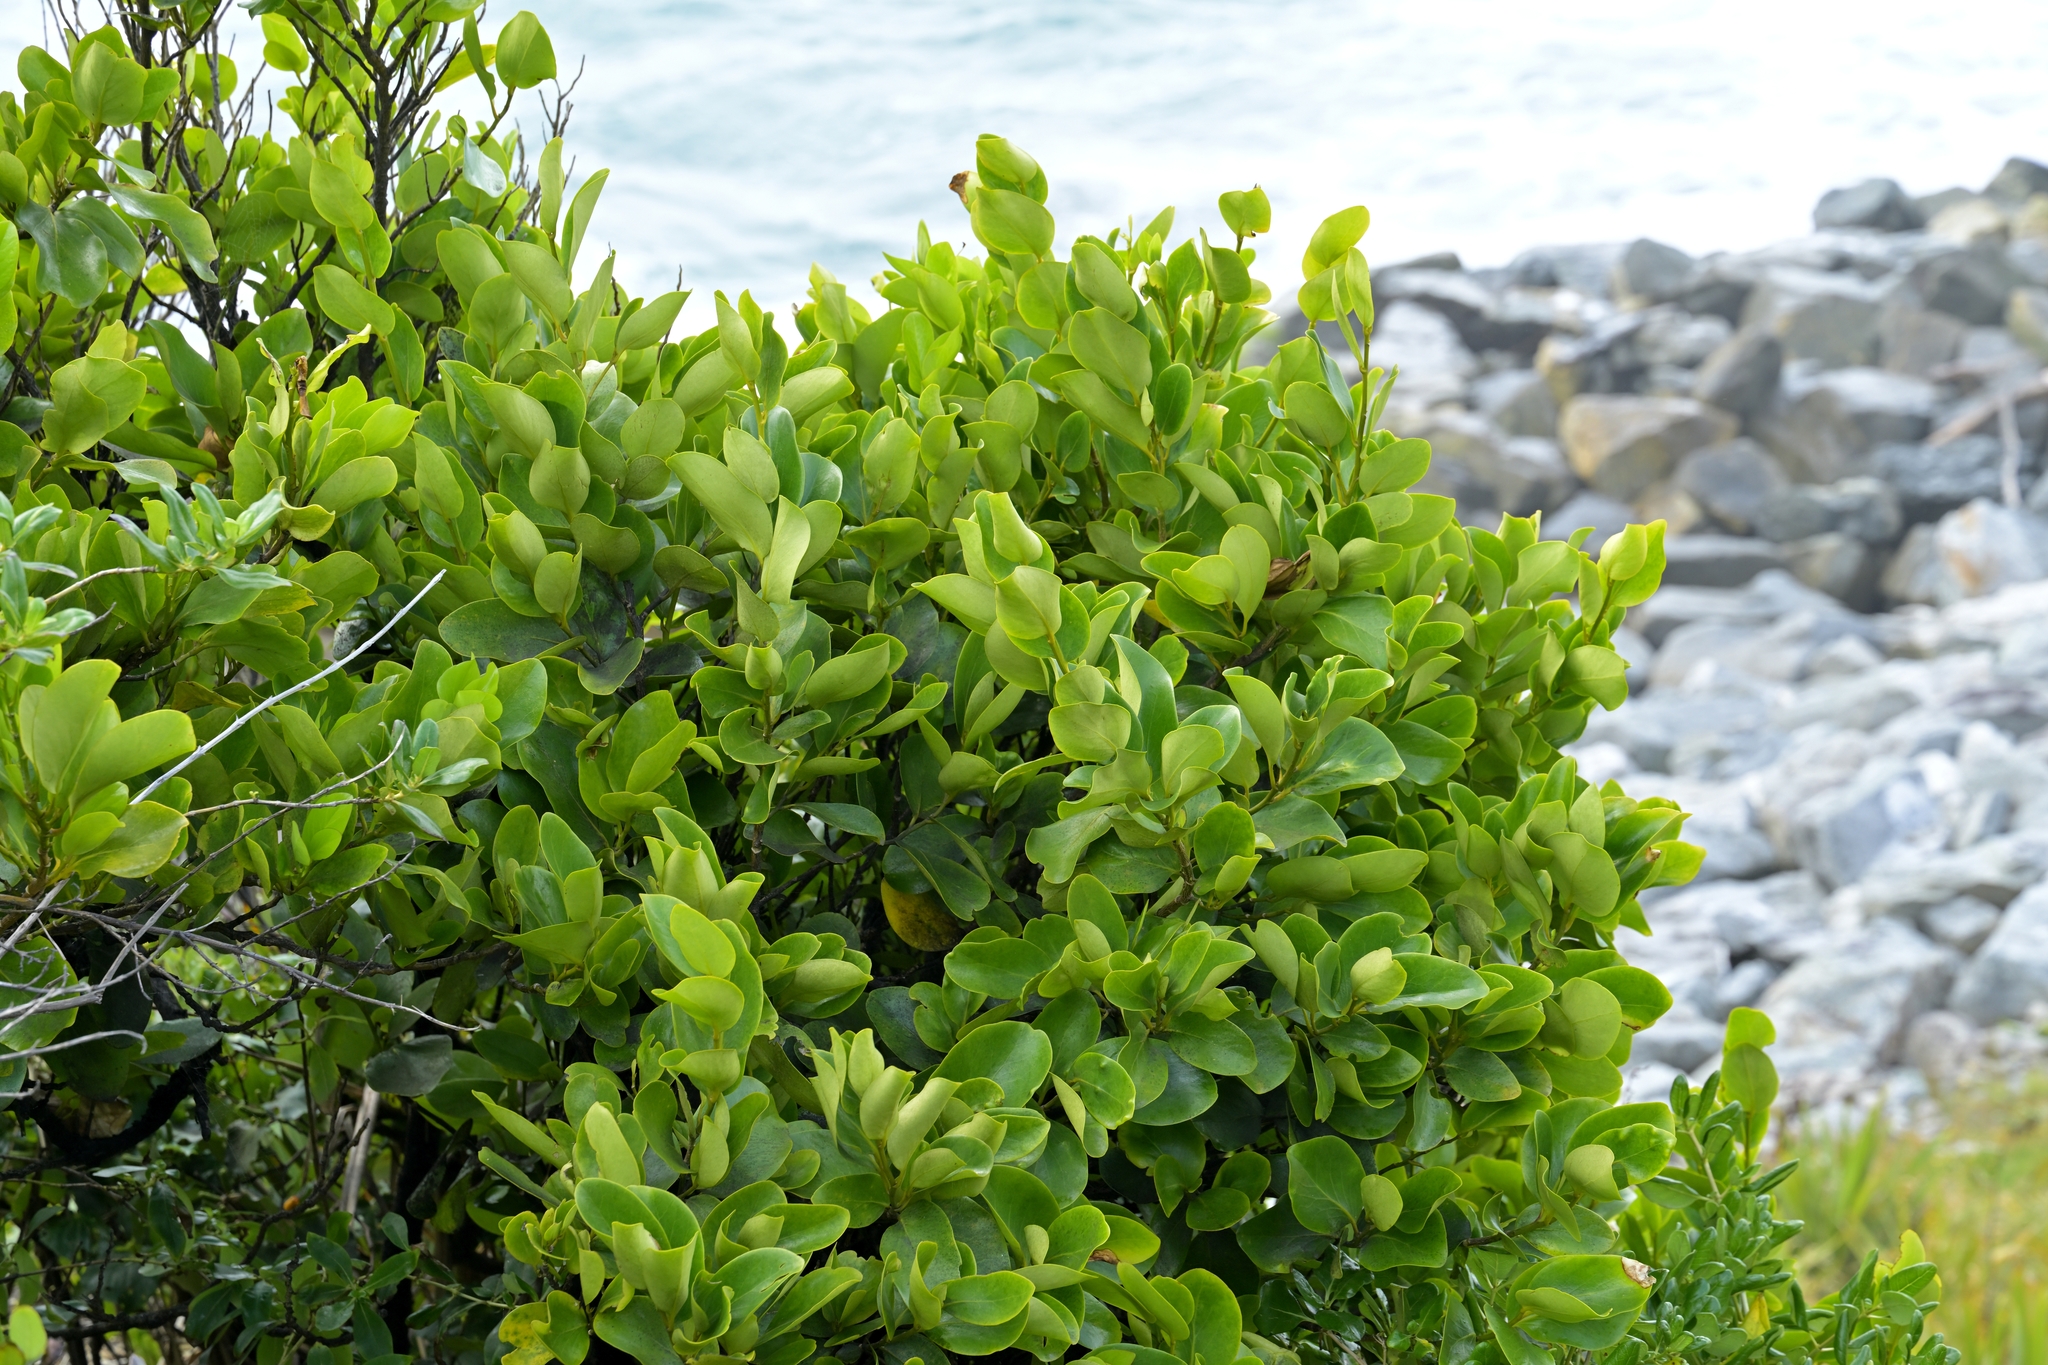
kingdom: Plantae
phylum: Tracheophyta
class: Magnoliopsida
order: Apiales
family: Griseliniaceae
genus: Griselinia
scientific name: Griselinia lucida
